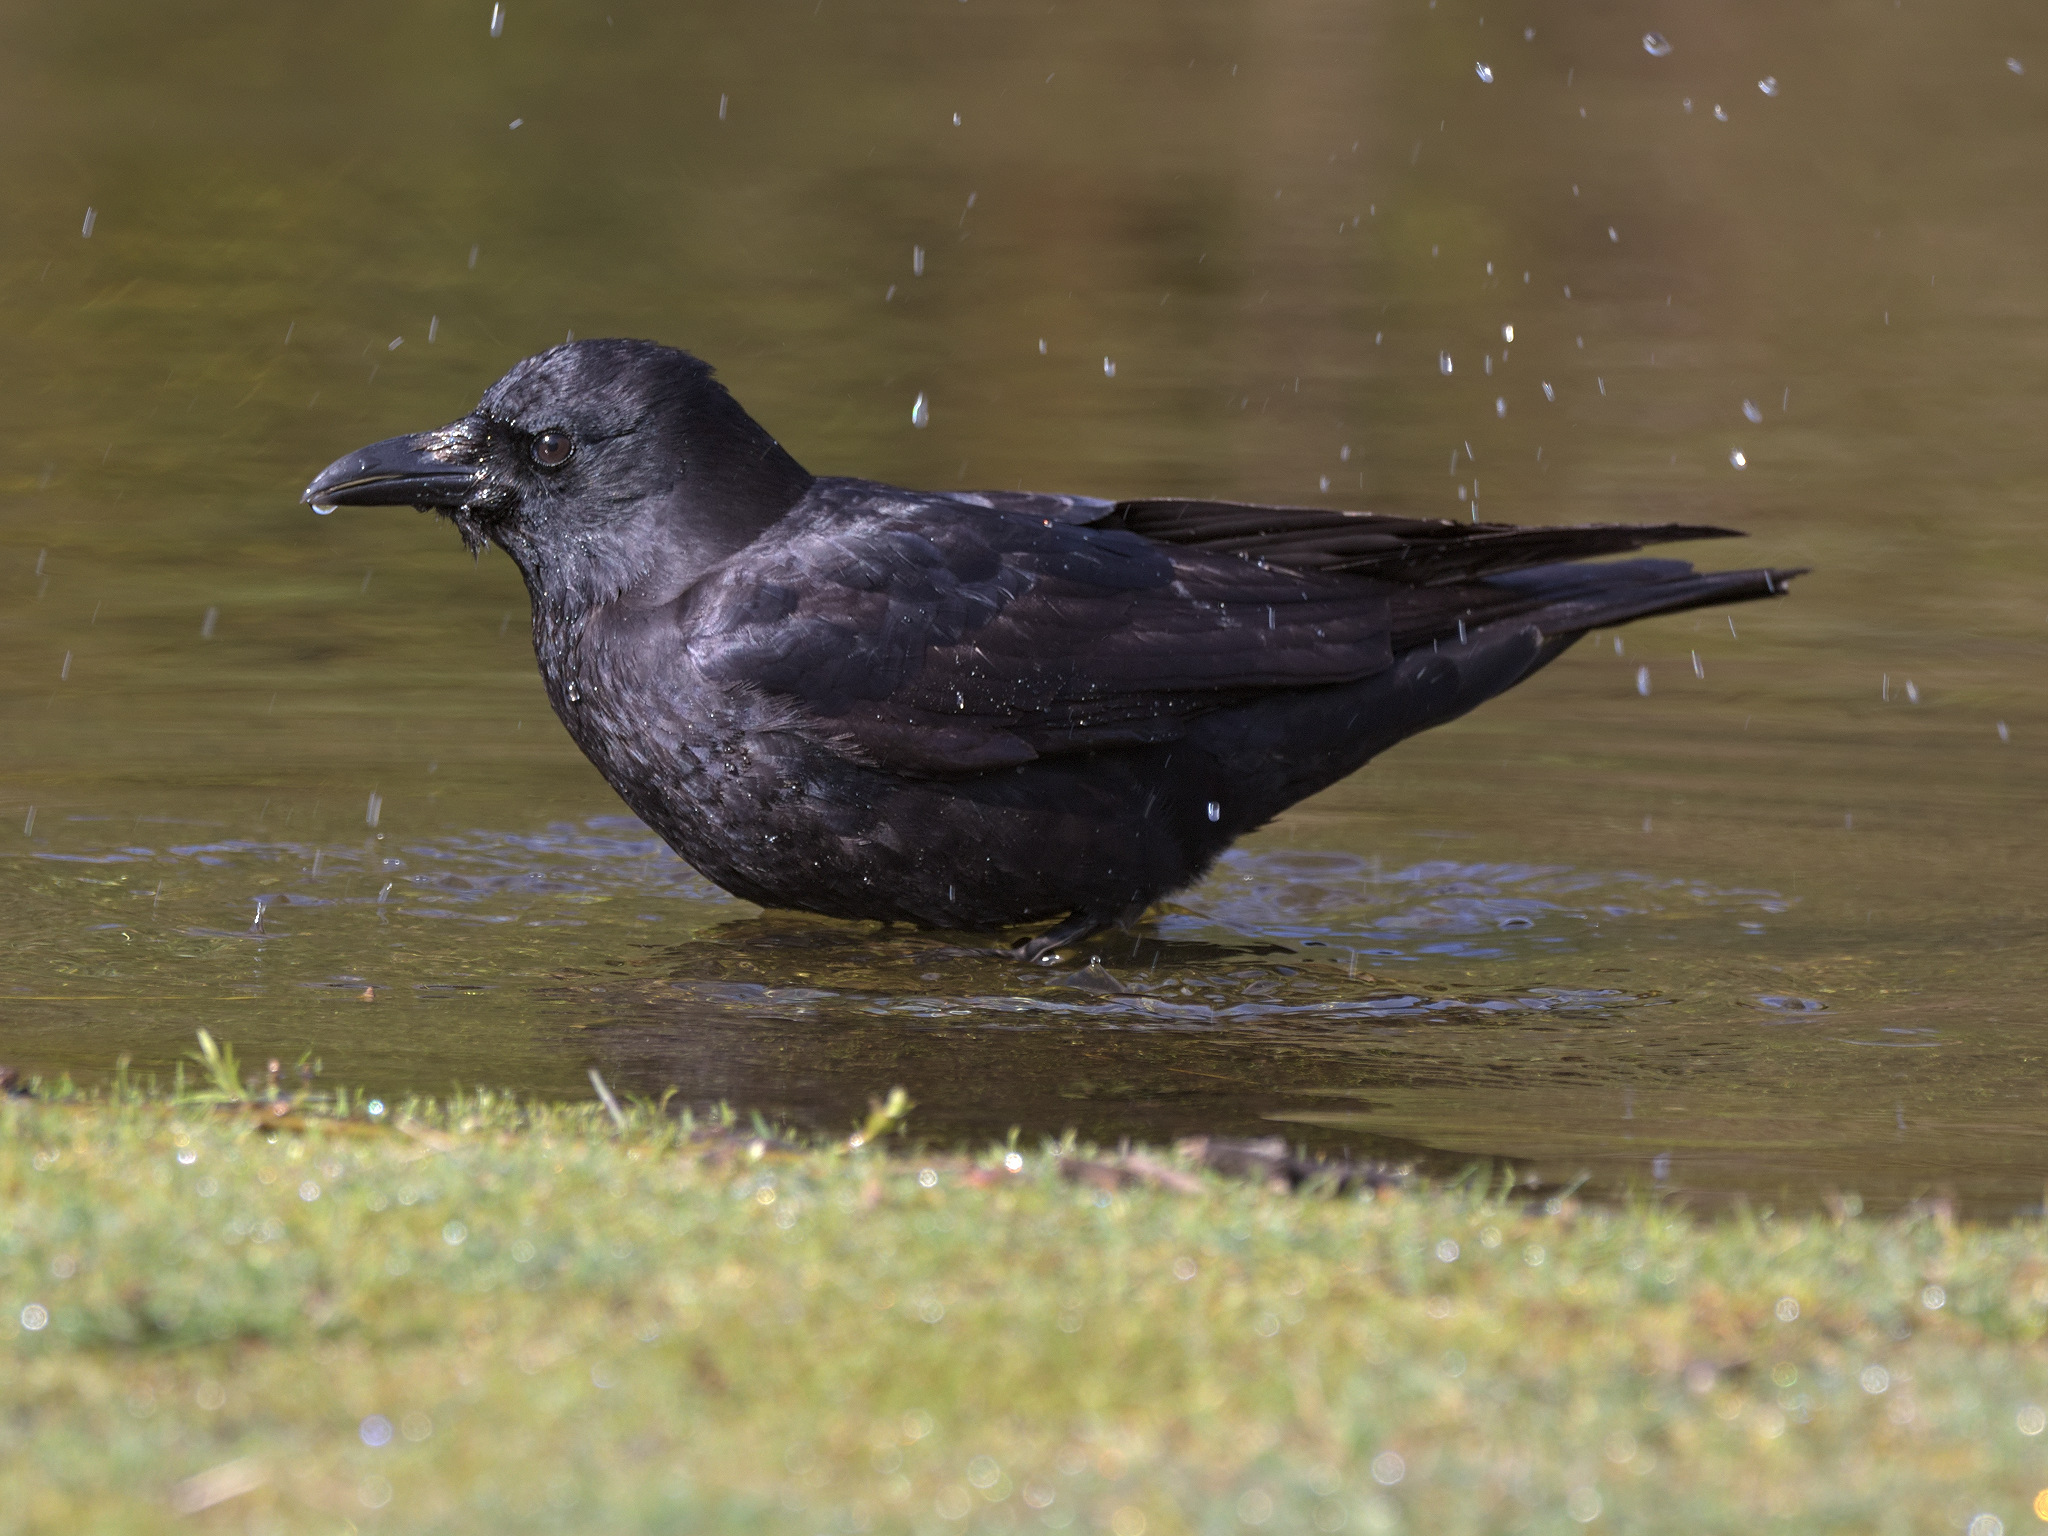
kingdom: Animalia
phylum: Chordata
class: Aves
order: Passeriformes
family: Corvidae
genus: Corvus
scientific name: Corvus brachyrhynchos
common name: American crow
